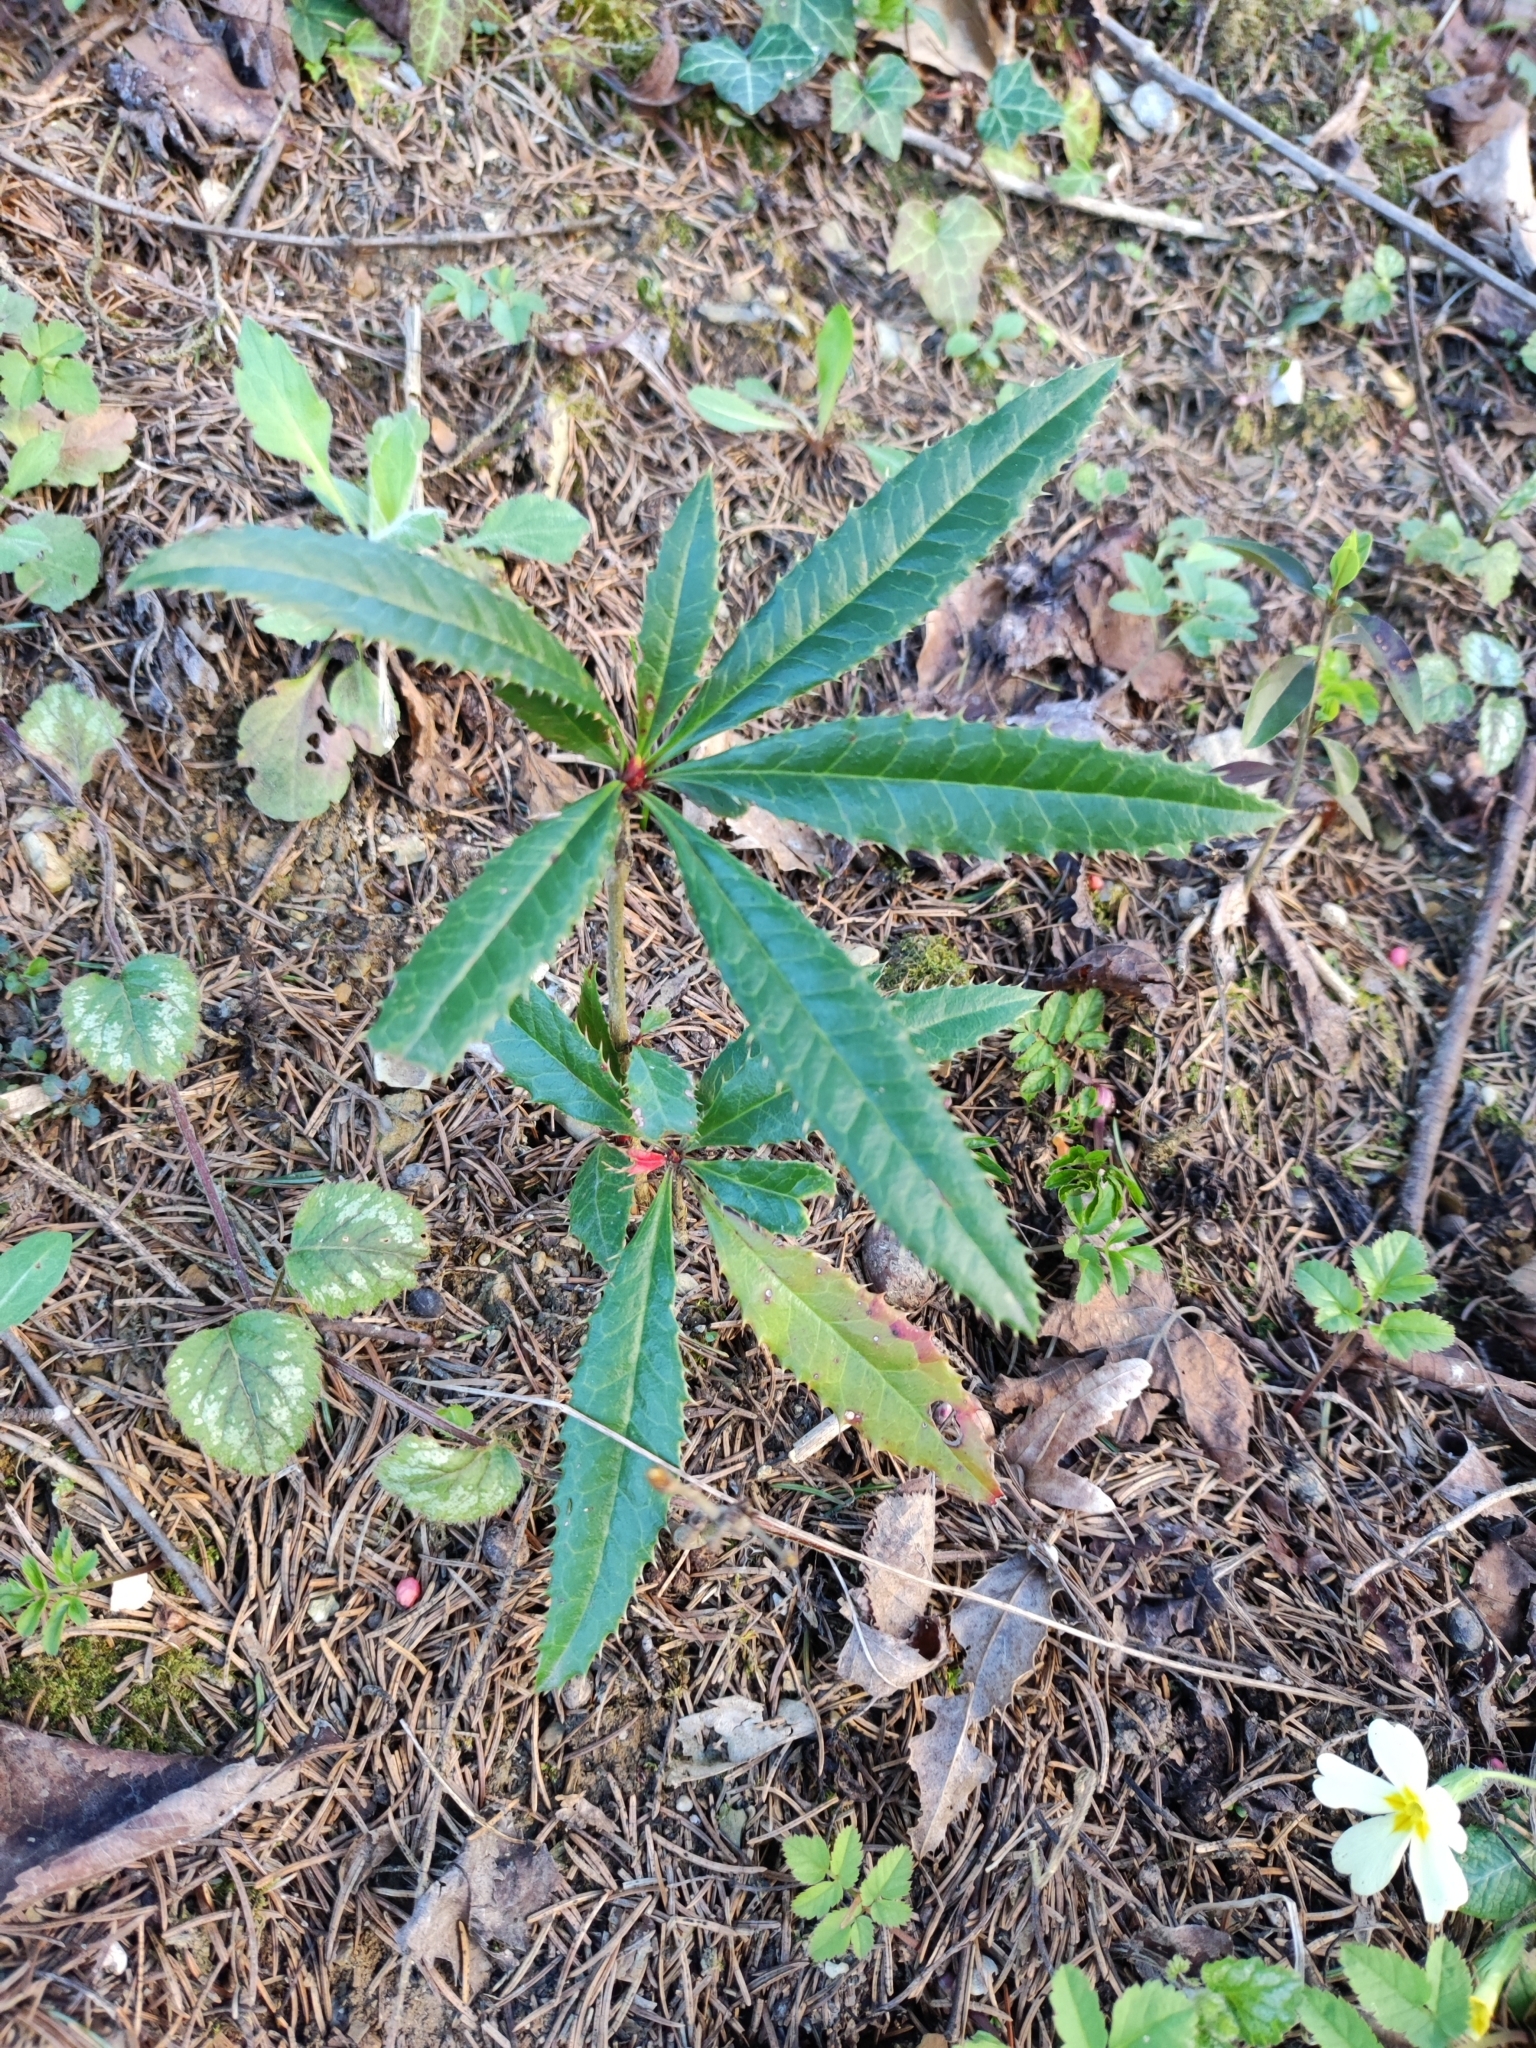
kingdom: Plantae
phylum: Tracheophyta
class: Magnoliopsida
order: Ranunculales
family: Berberidaceae
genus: Berberis
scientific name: Berberis julianae
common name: Wintergreen barberry
